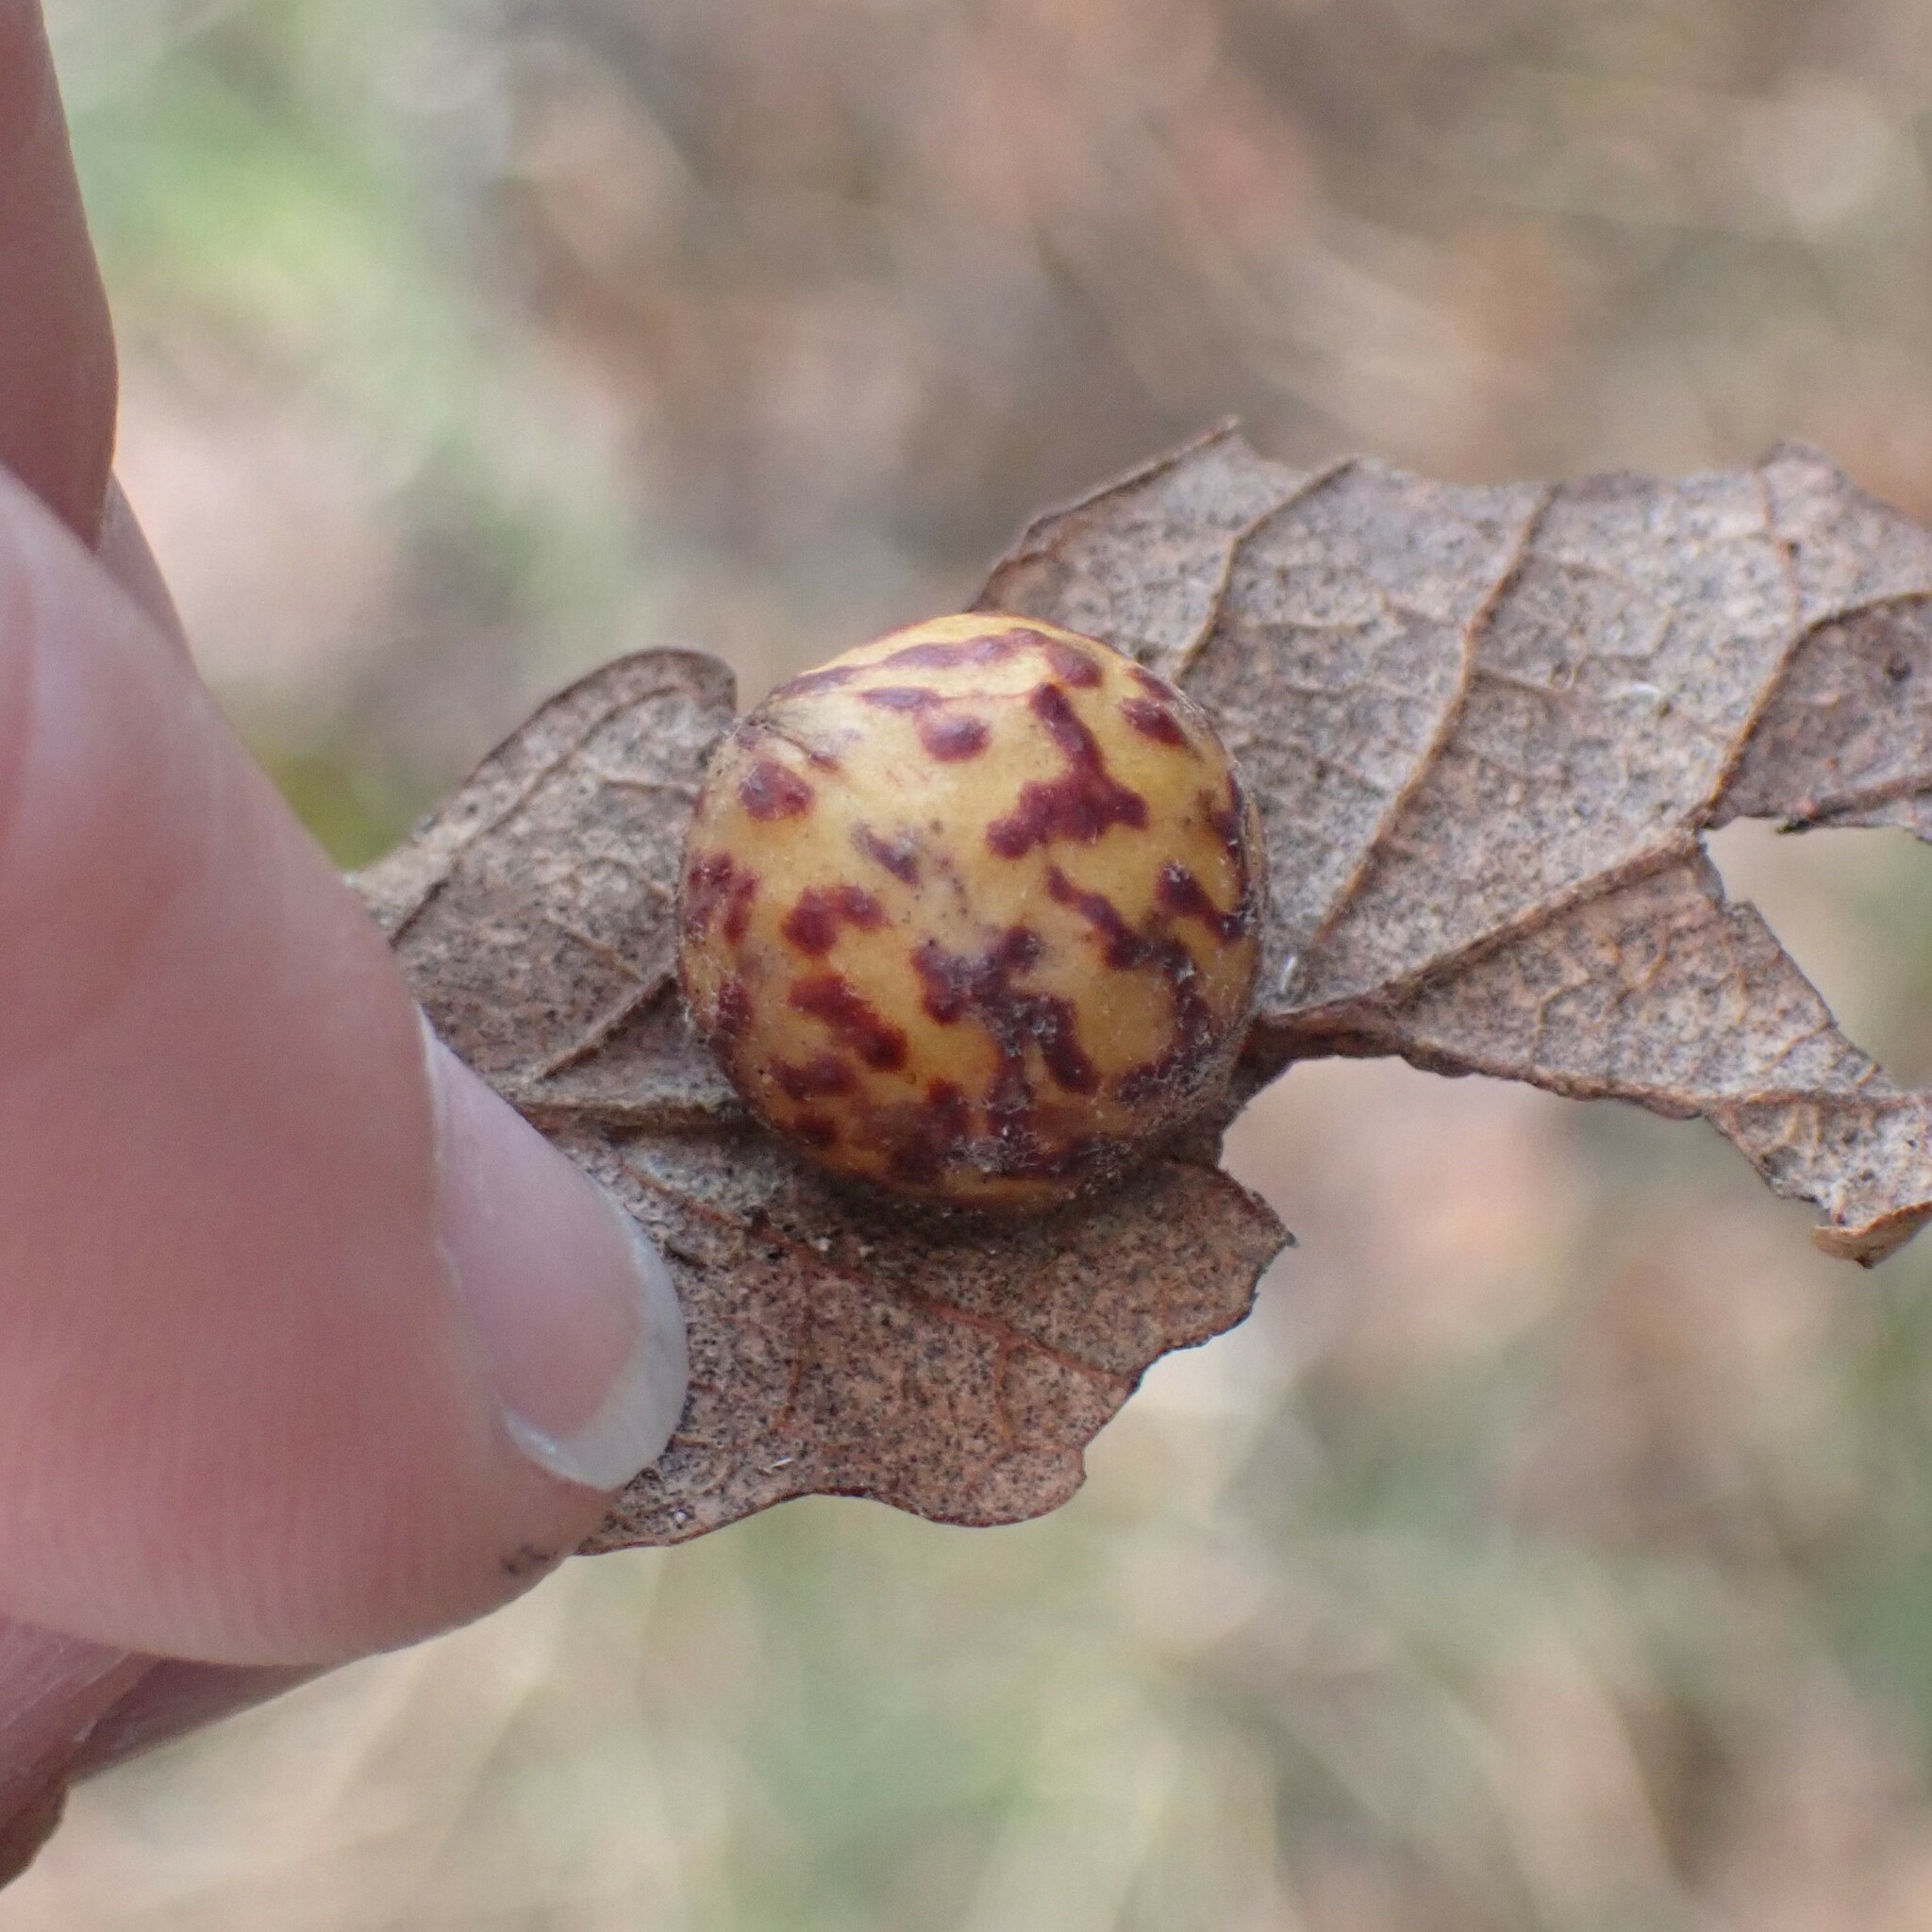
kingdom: Animalia
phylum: Arthropoda
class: Insecta
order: Hymenoptera
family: Cynipidae
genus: Cynips
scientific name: Cynips
